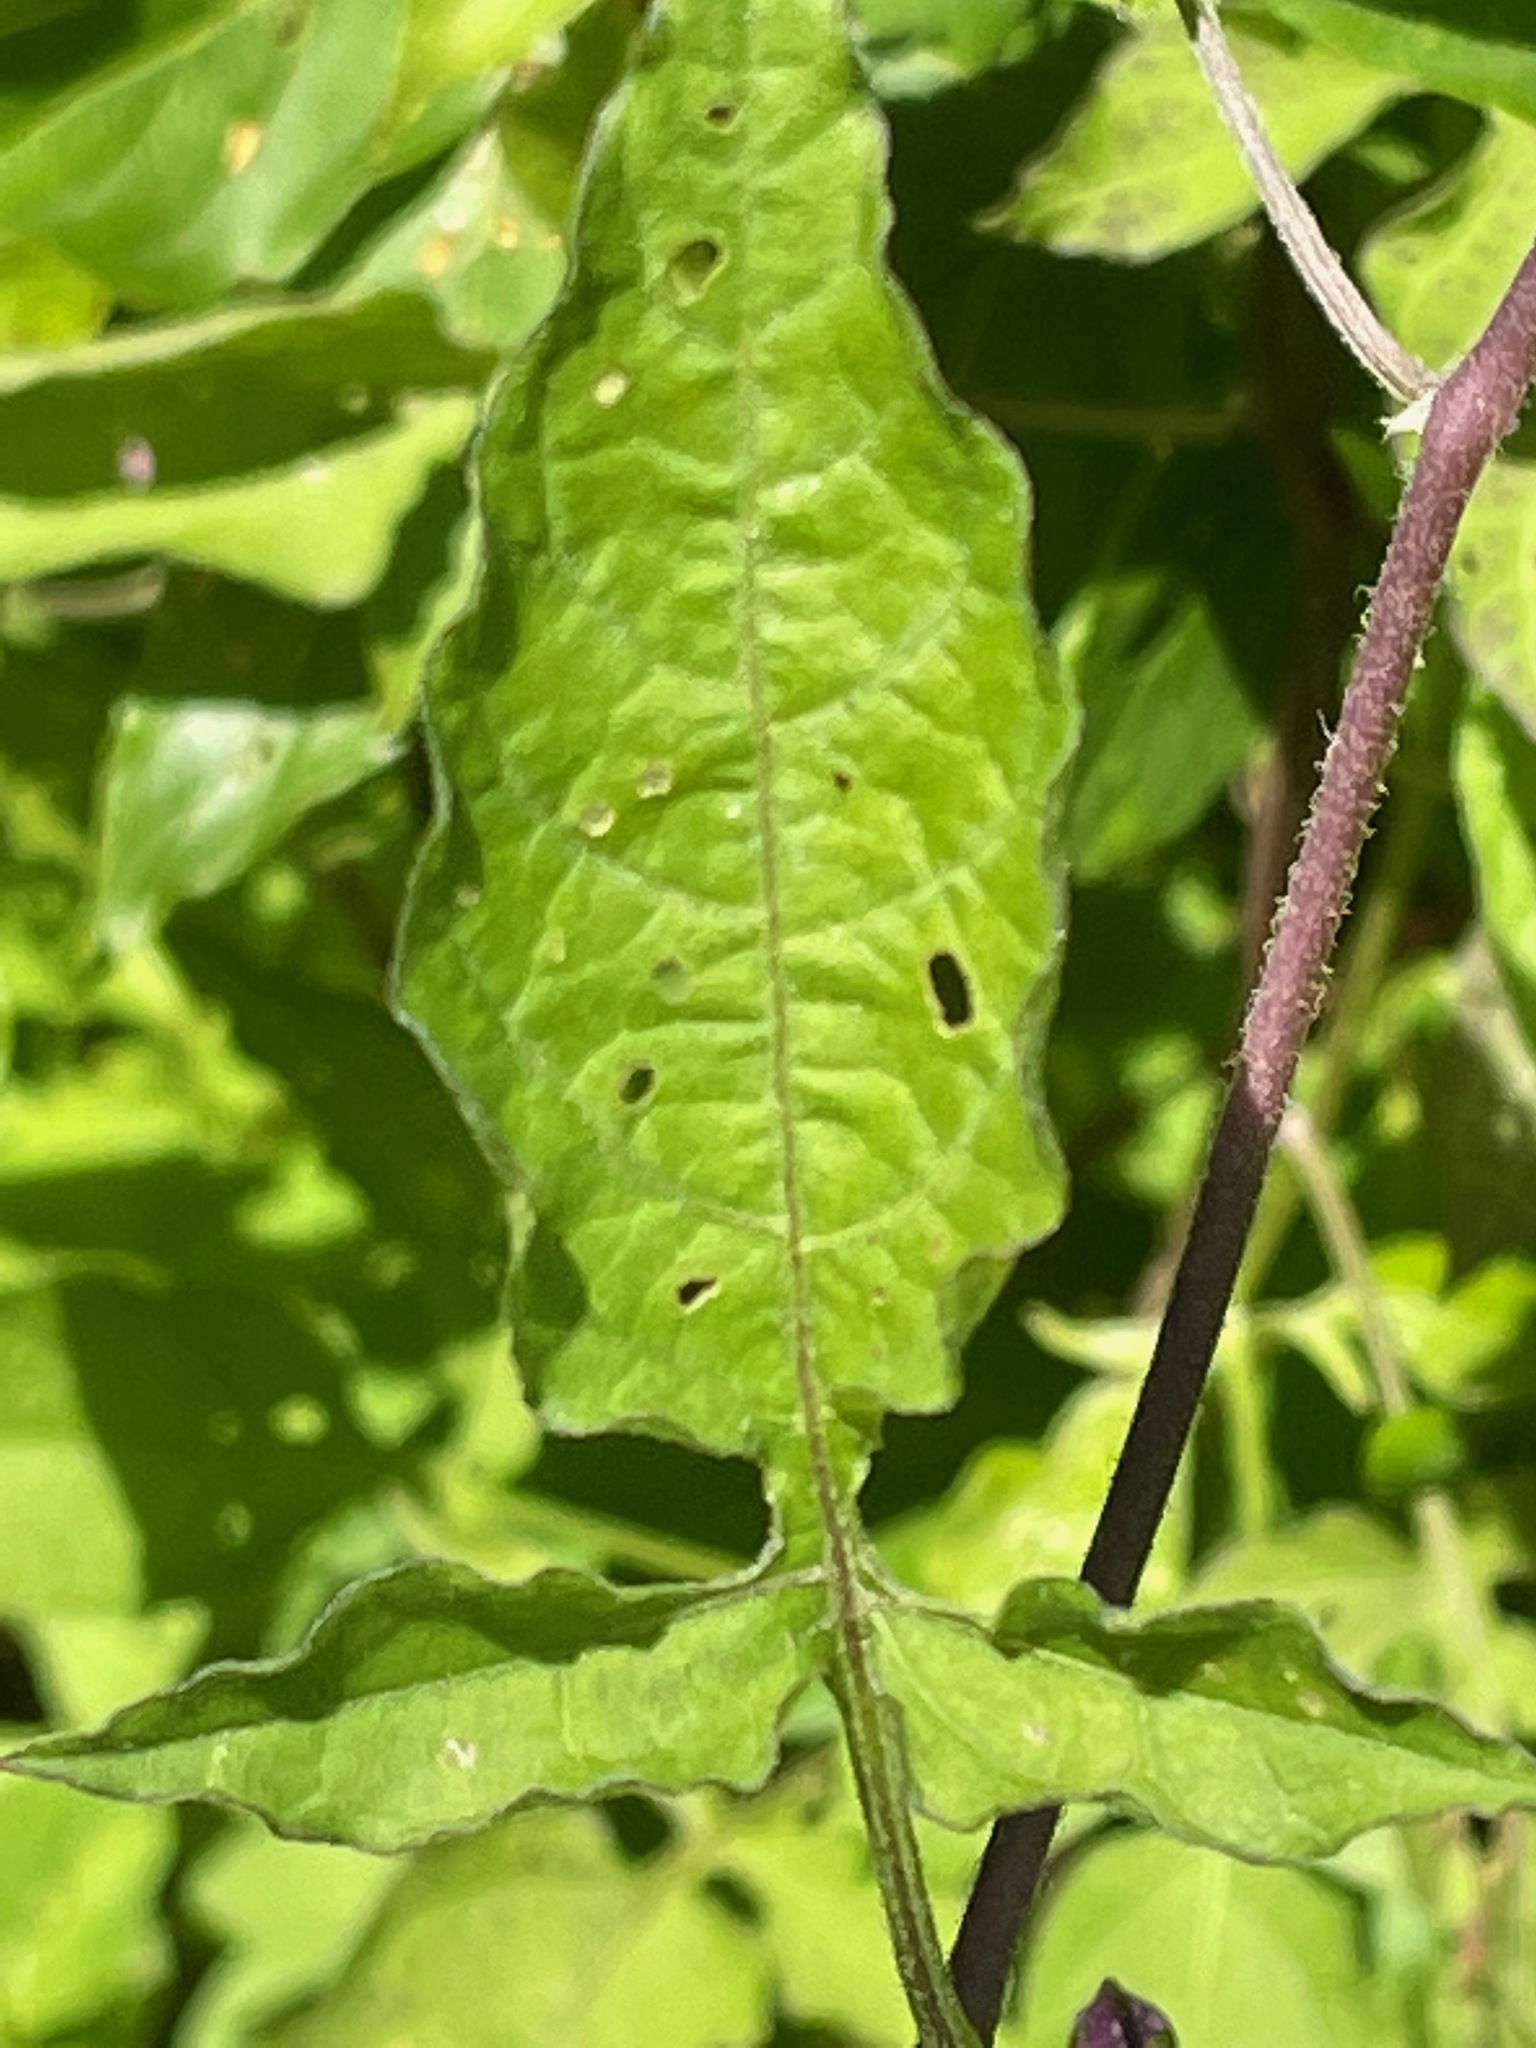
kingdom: Plantae
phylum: Tracheophyta
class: Magnoliopsida
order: Solanales
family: Solanaceae
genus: Solanum
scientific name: Solanum dulcamara
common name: Climbing nightshade
